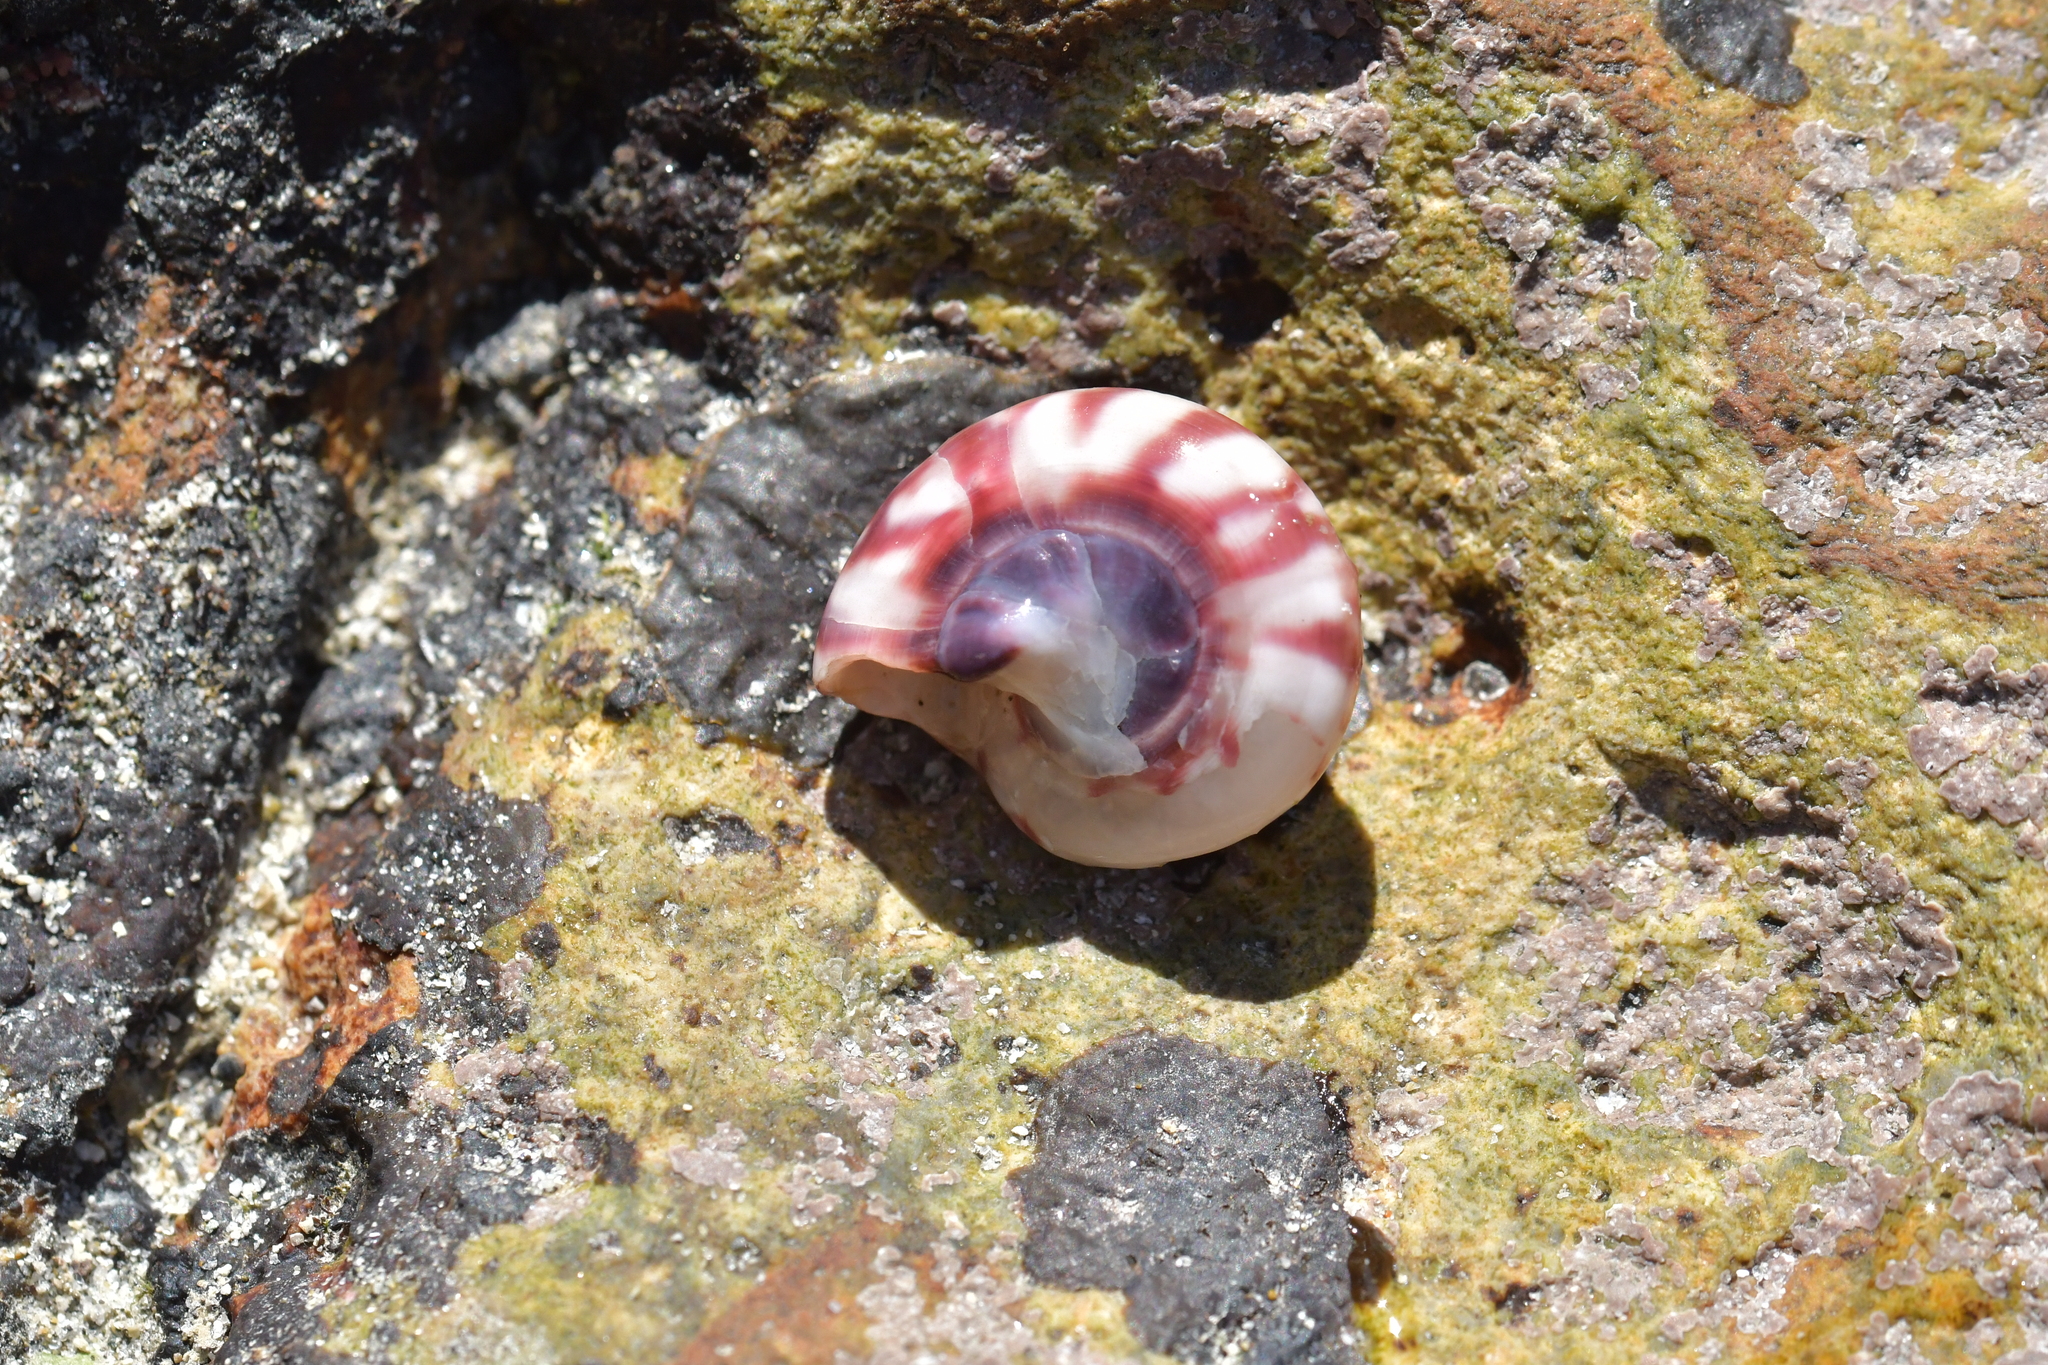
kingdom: Animalia
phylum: Mollusca
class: Gastropoda
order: Trochida
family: Trochidae
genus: Zethalia
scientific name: Zethalia zelandica
